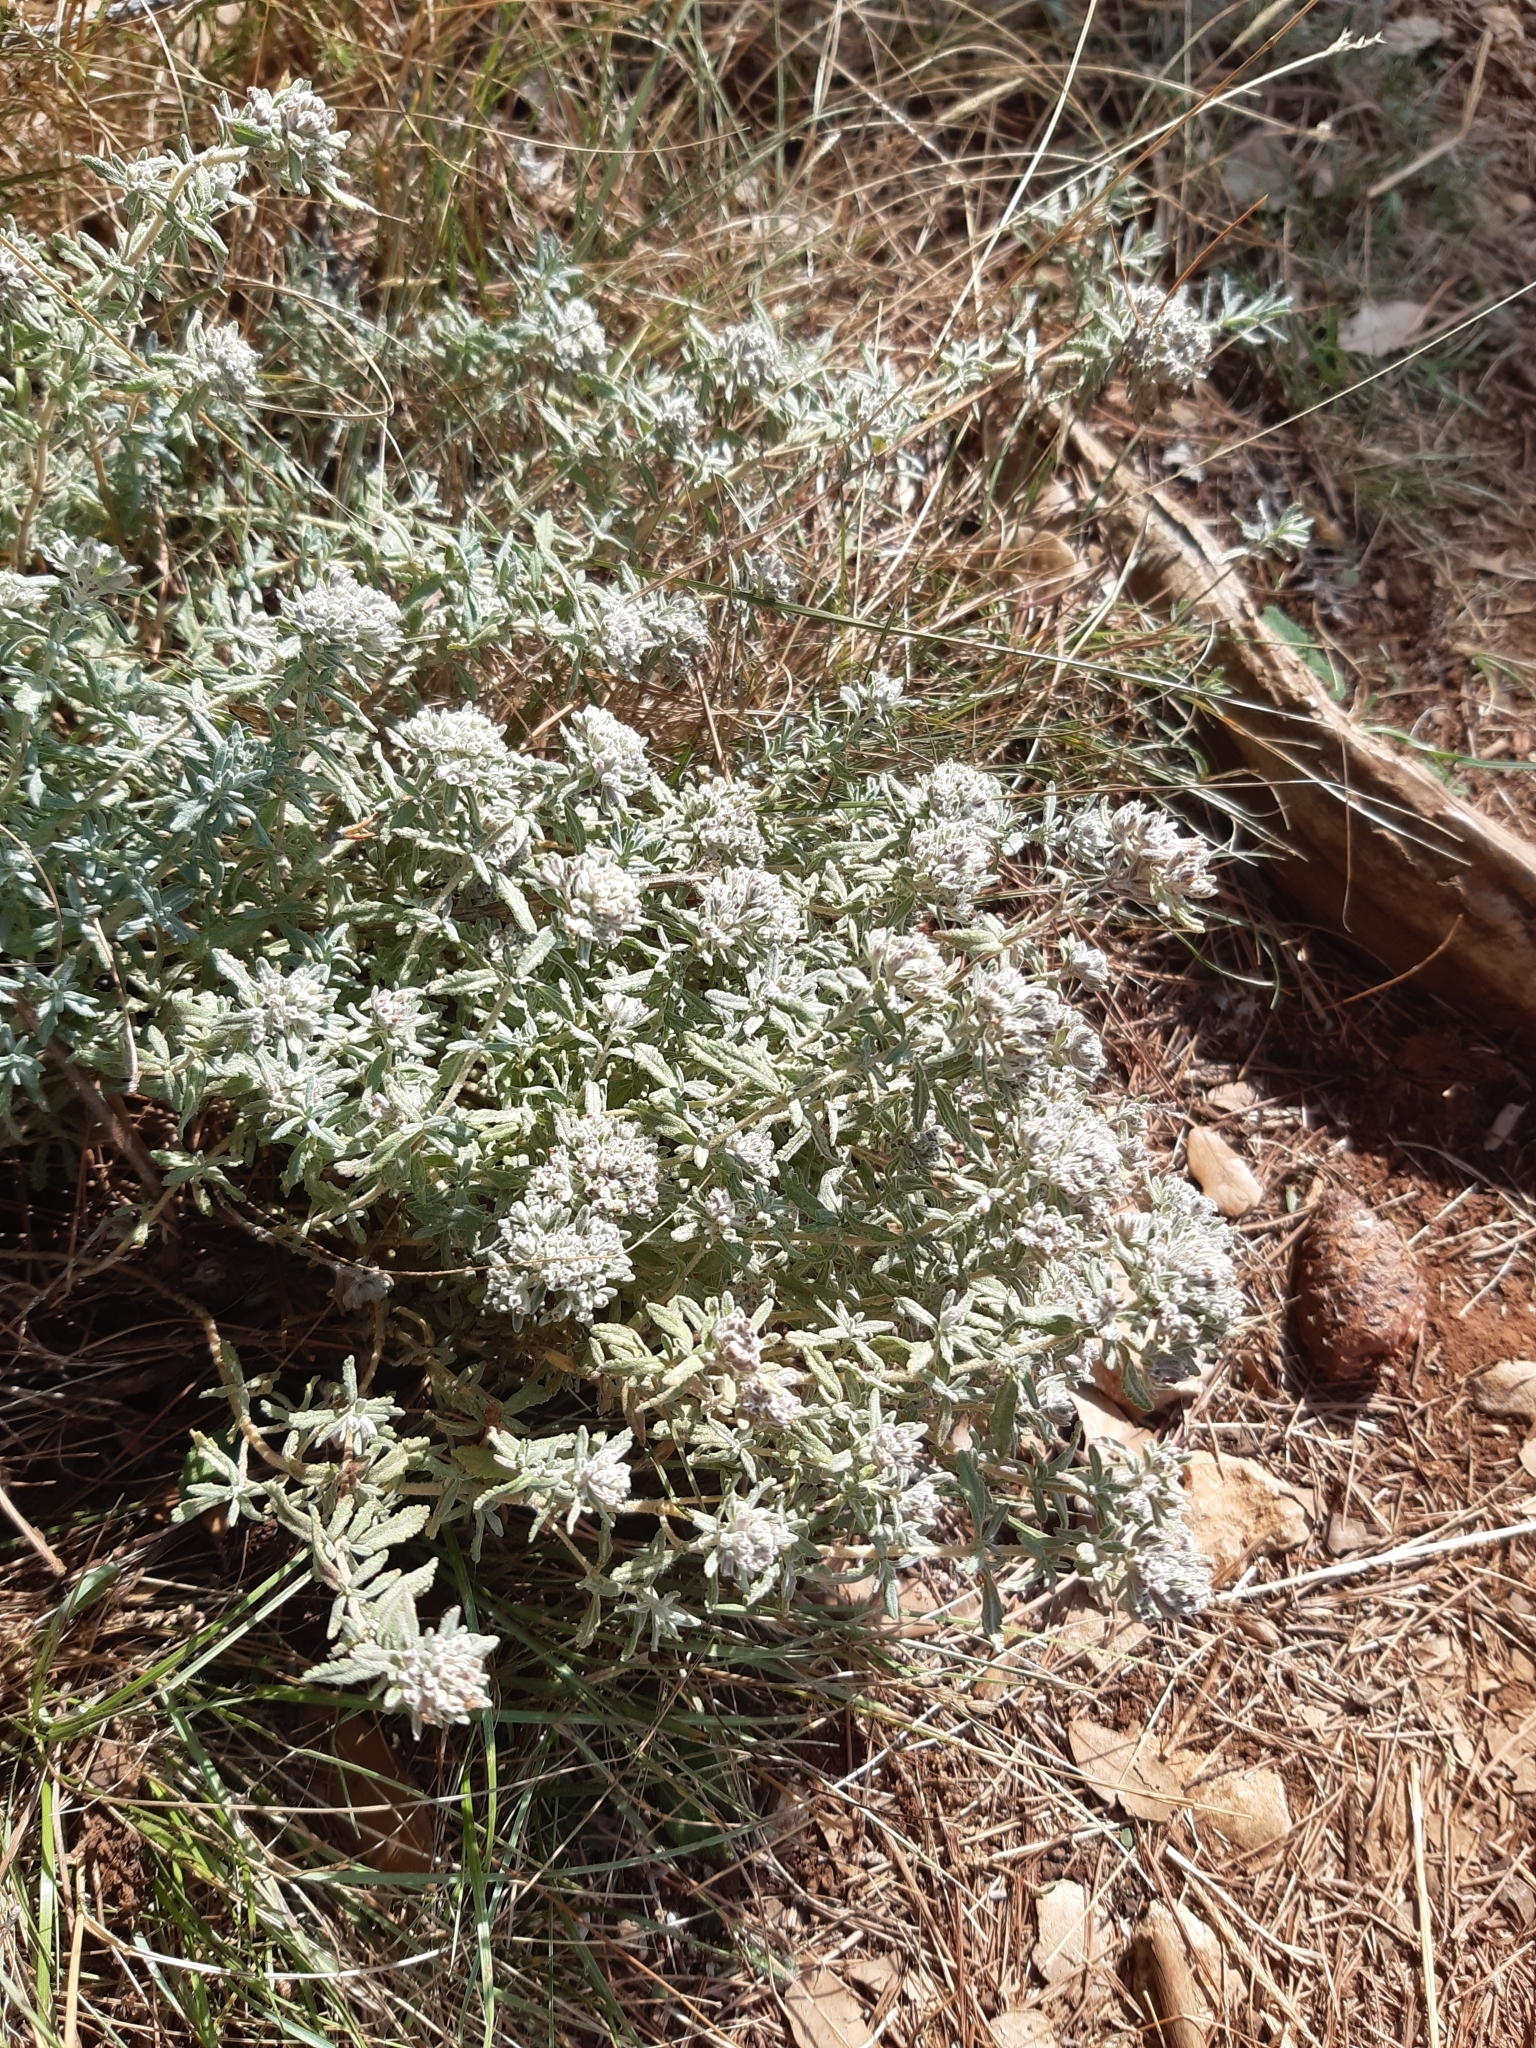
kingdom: Plantae
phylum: Tracheophyta
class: Magnoliopsida
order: Lamiales
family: Lamiaceae
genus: Teucrium
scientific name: Teucrium capitatum
